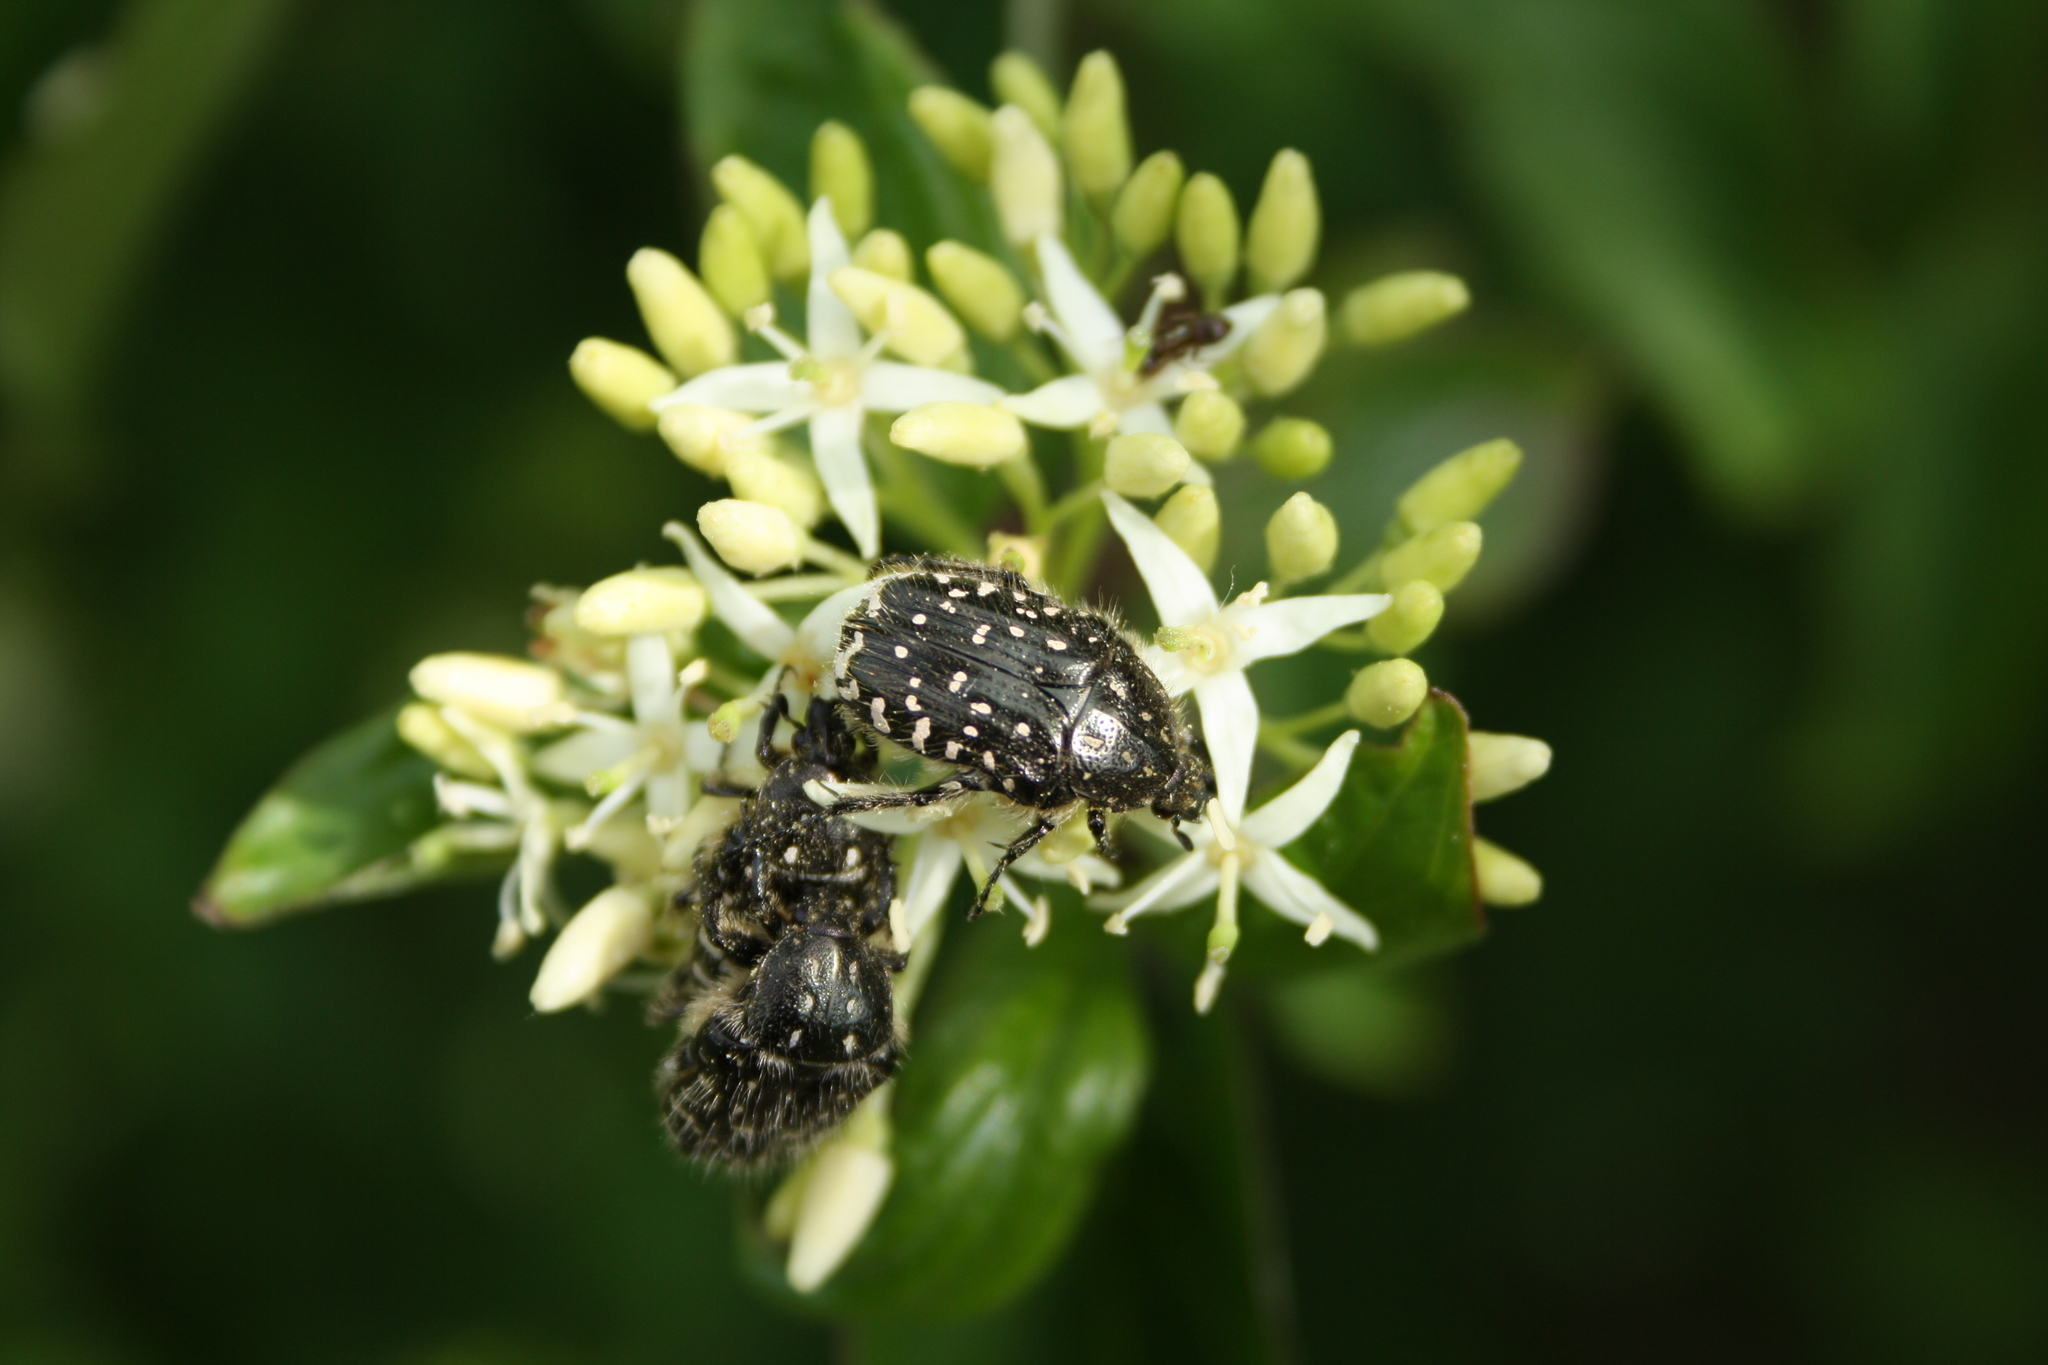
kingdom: Animalia
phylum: Arthropoda
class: Insecta
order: Coleoptera
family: Scarabaeidae
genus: Oxythyrea
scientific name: Oxythyrea funesta
